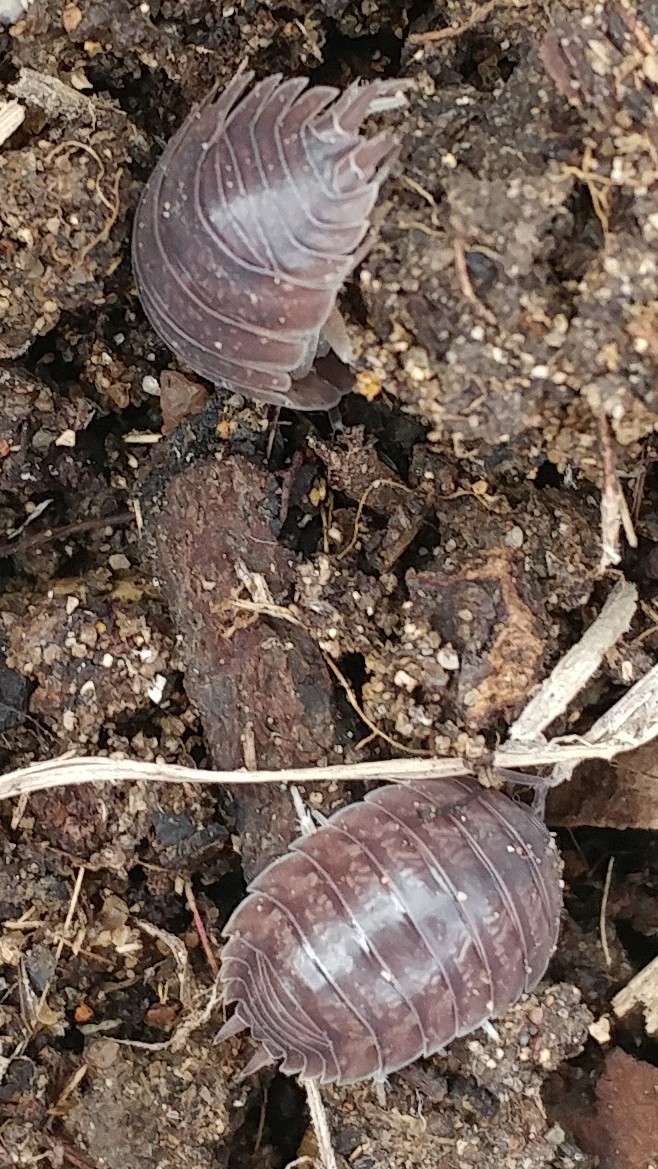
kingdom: Animalia
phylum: Arthropoda
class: Malacostraca
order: Isopoda
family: Porcellionidae
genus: Porcellio
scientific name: Porcellio laevis
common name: Swift woodlouse
